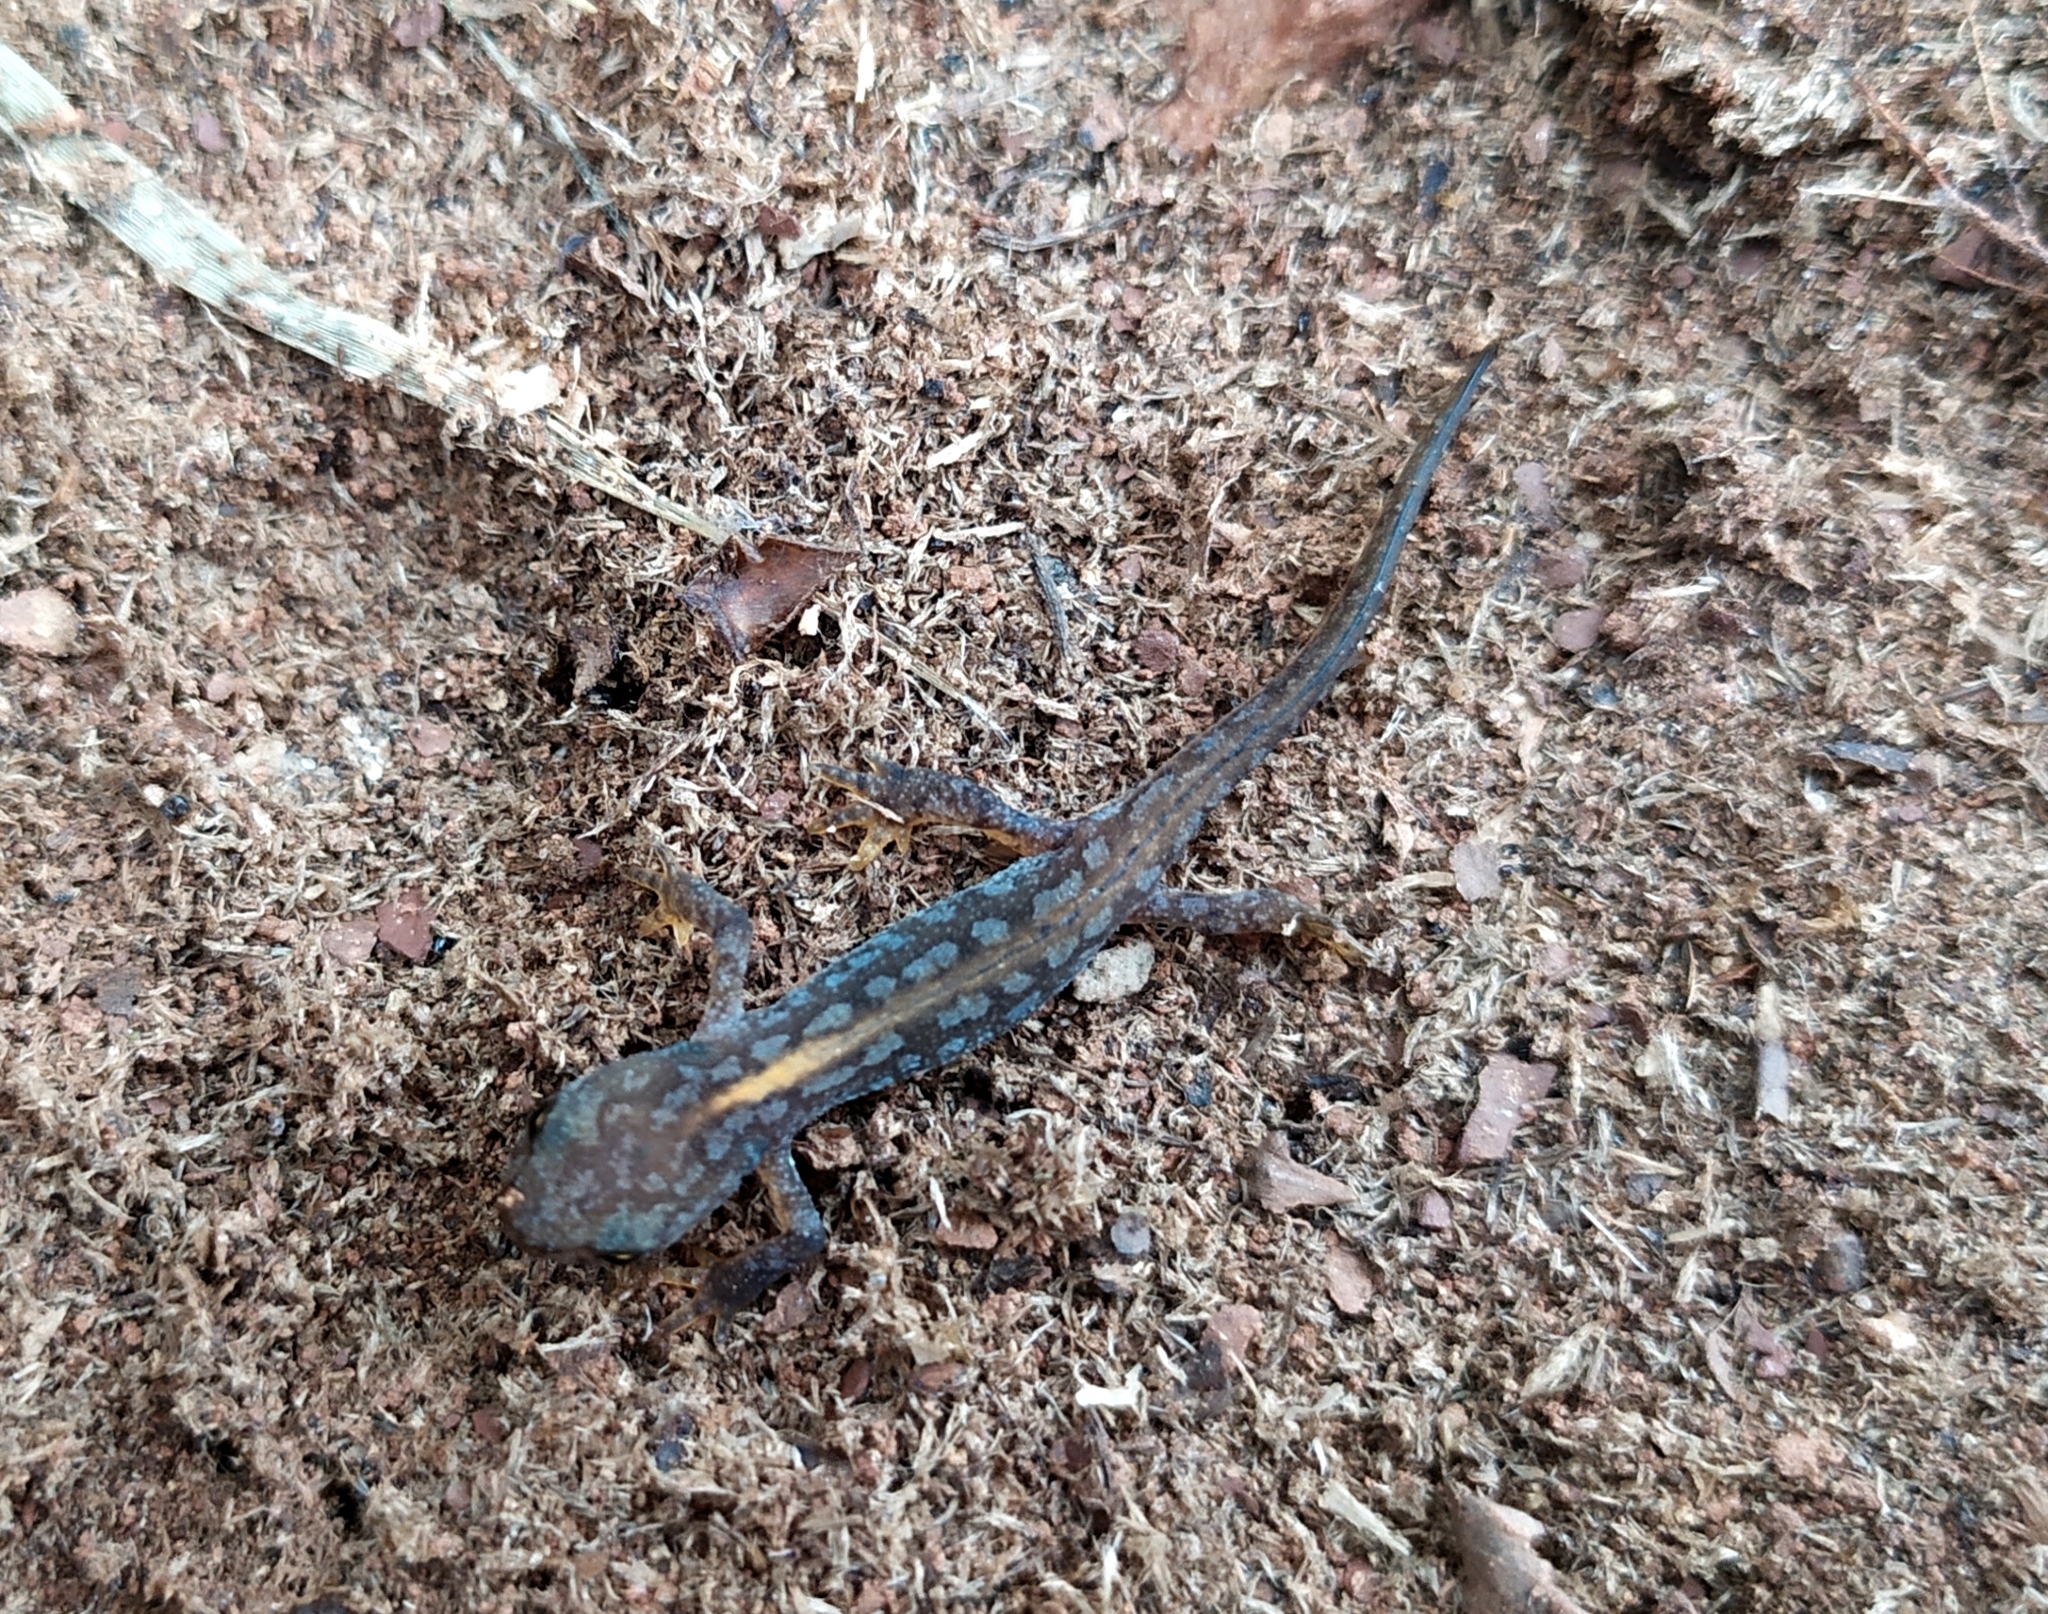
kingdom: Animalia
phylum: Chordata
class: Amphibia
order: Caudata
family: Salamandridae
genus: Ichthyosaura
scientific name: Ichthyosaura alpestris
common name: Alpine newt
